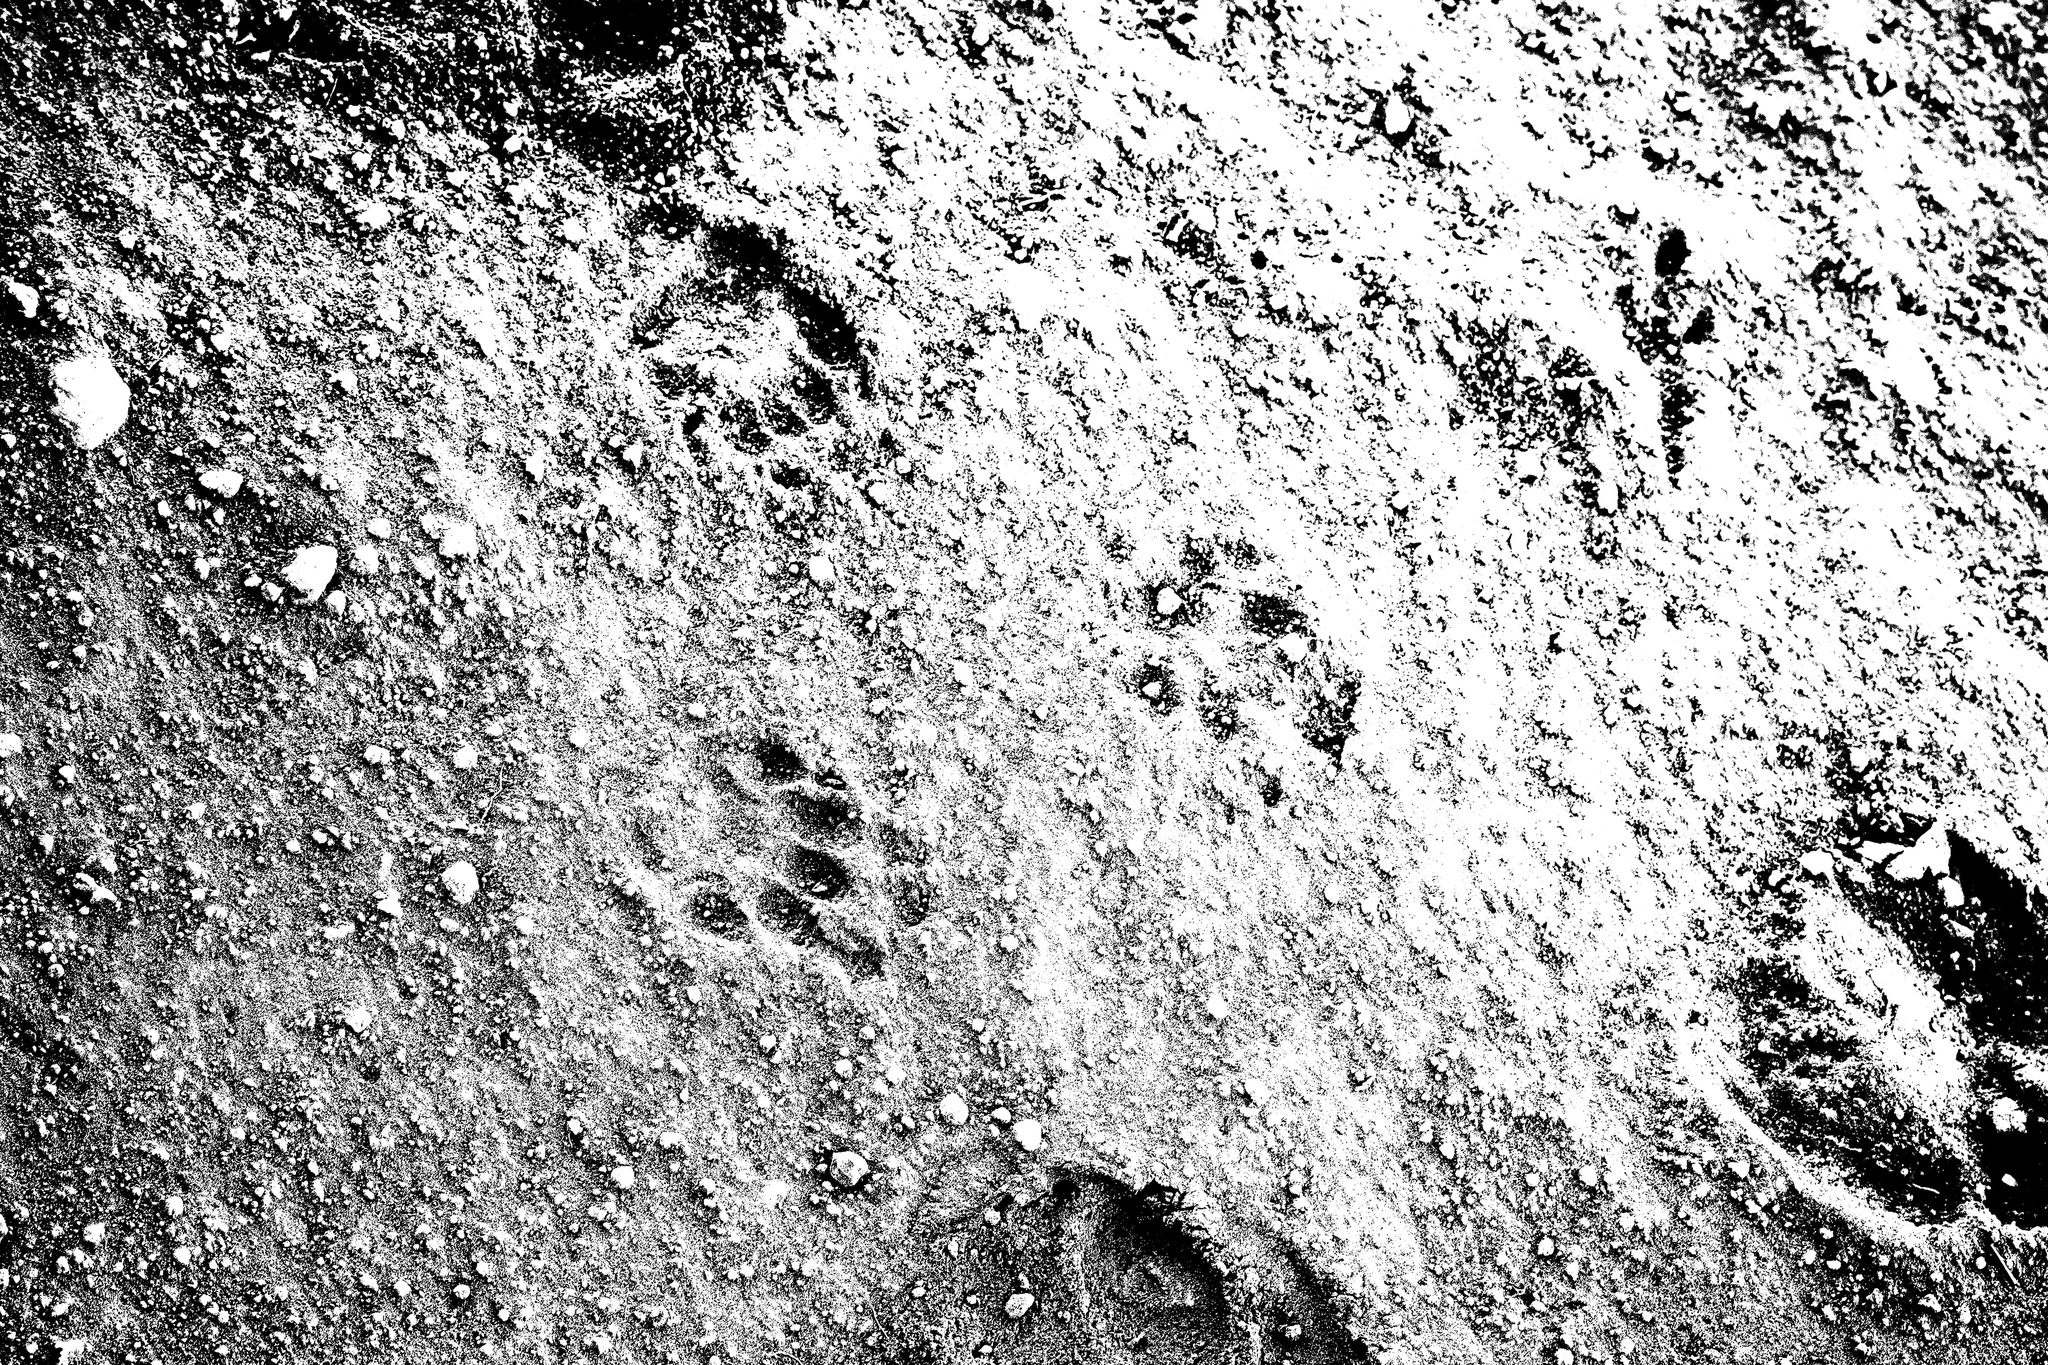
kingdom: Animalia
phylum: Chordata
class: Mammalia
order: Carnivora
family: Mephitidae
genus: Mephitis
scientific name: Mephitis mephitis
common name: Striped skunk
